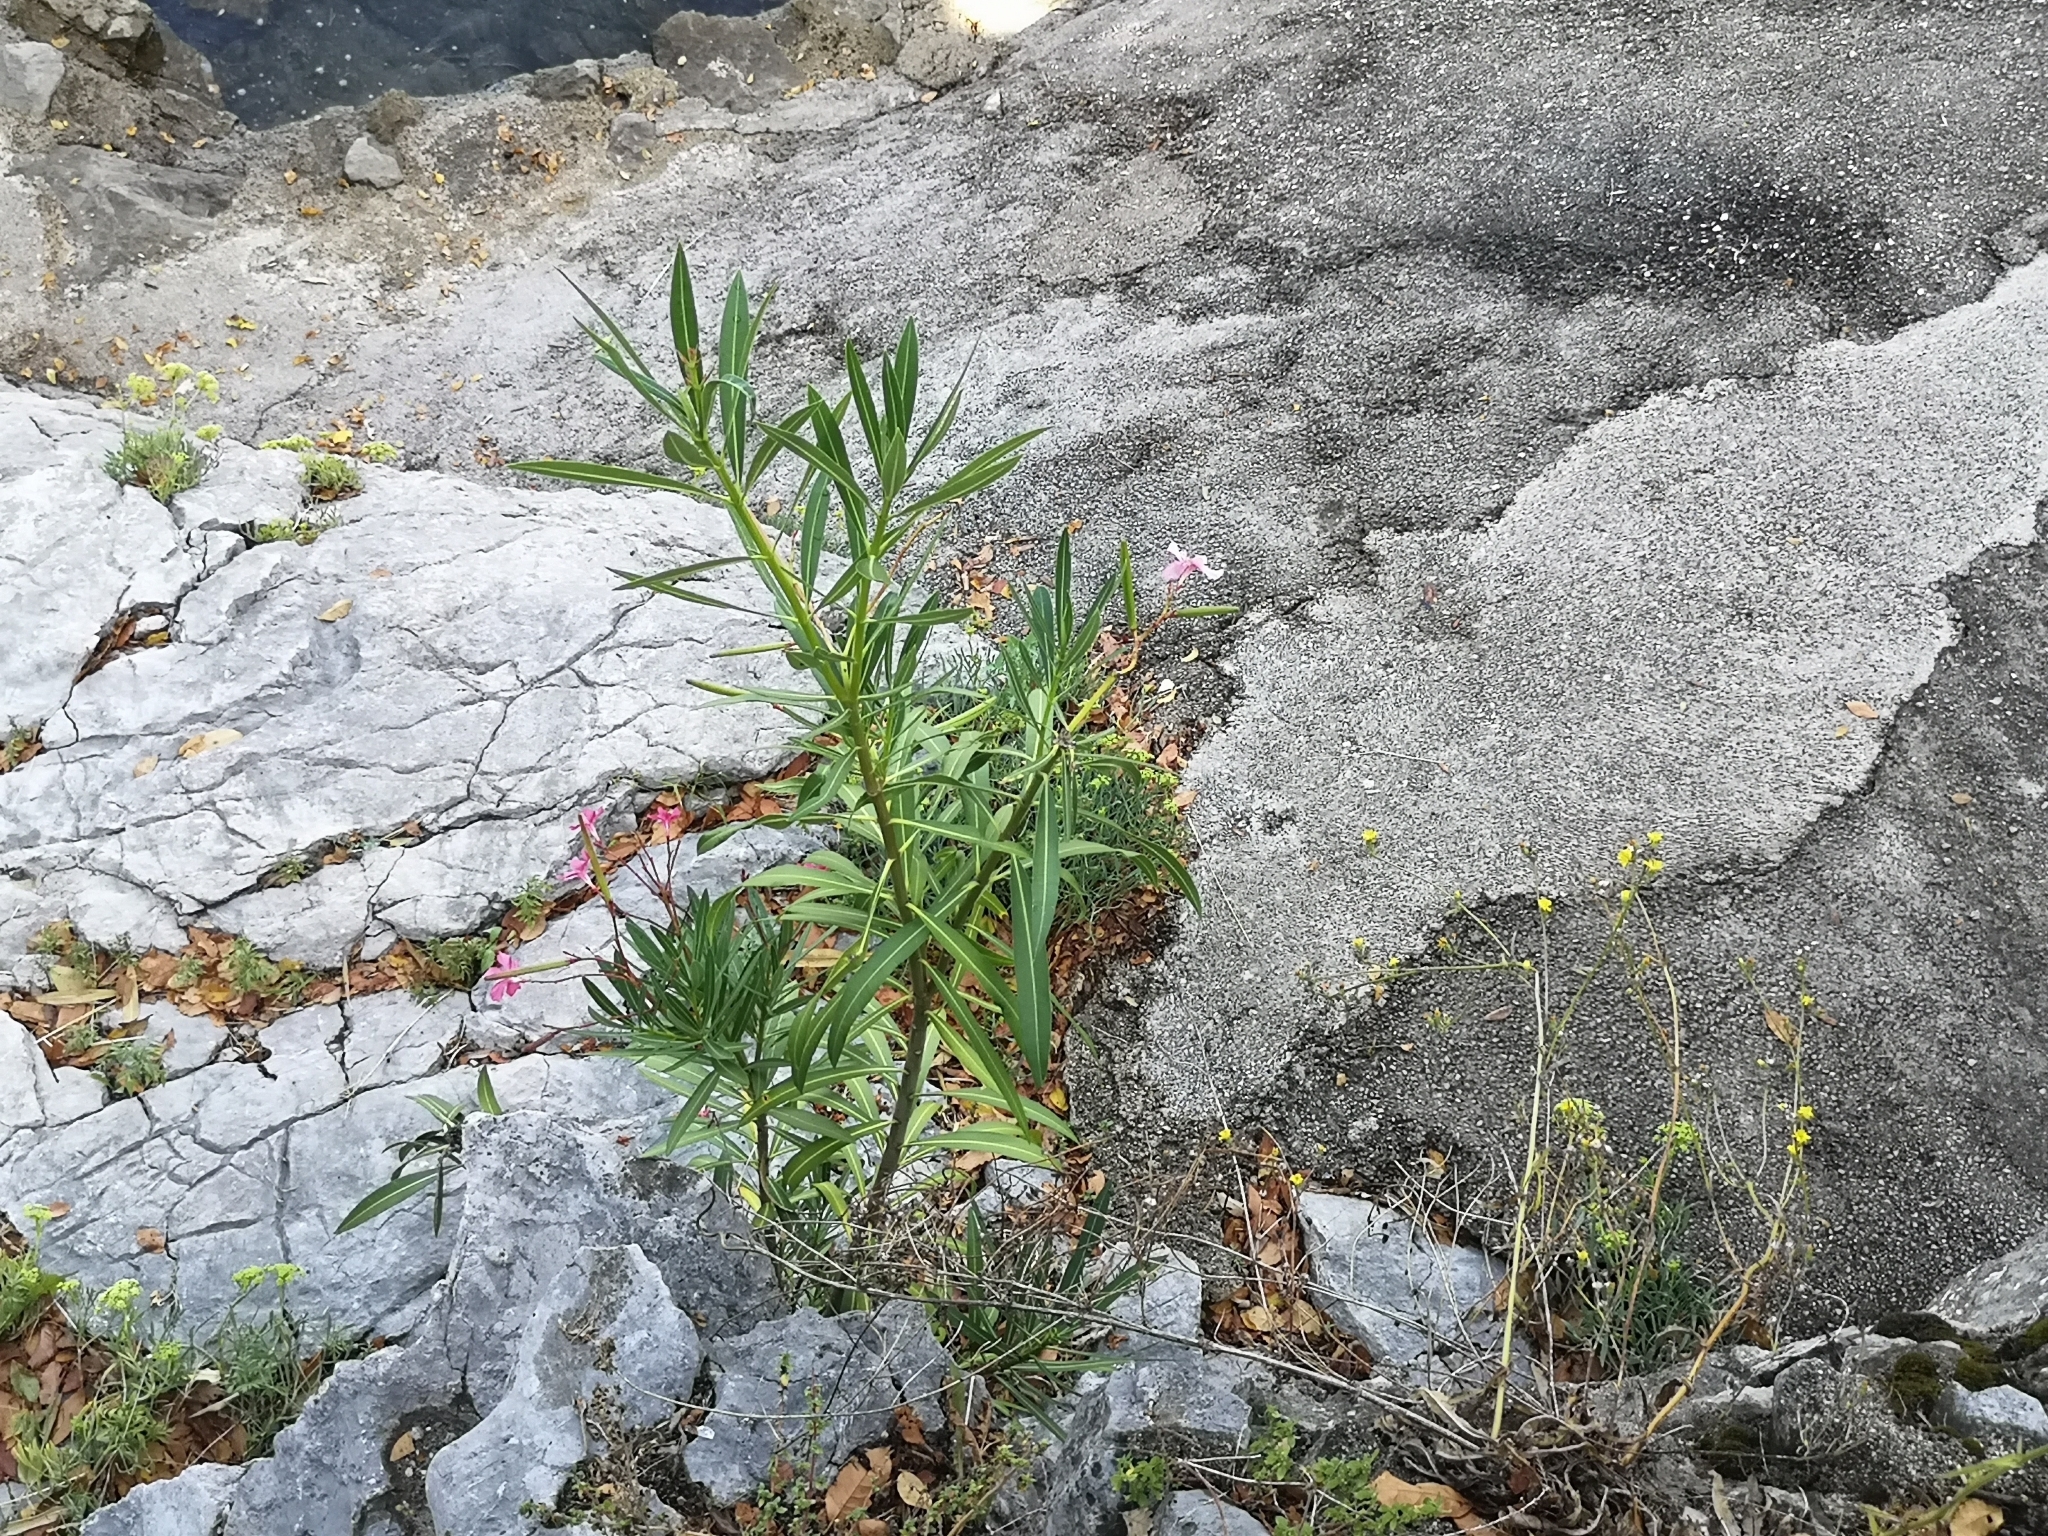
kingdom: Plantae
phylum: Tracheophyta
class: Magnoliopsida
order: Gentianales
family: Apocynaceae
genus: Nerium
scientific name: Nerium oleander
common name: Oleander
